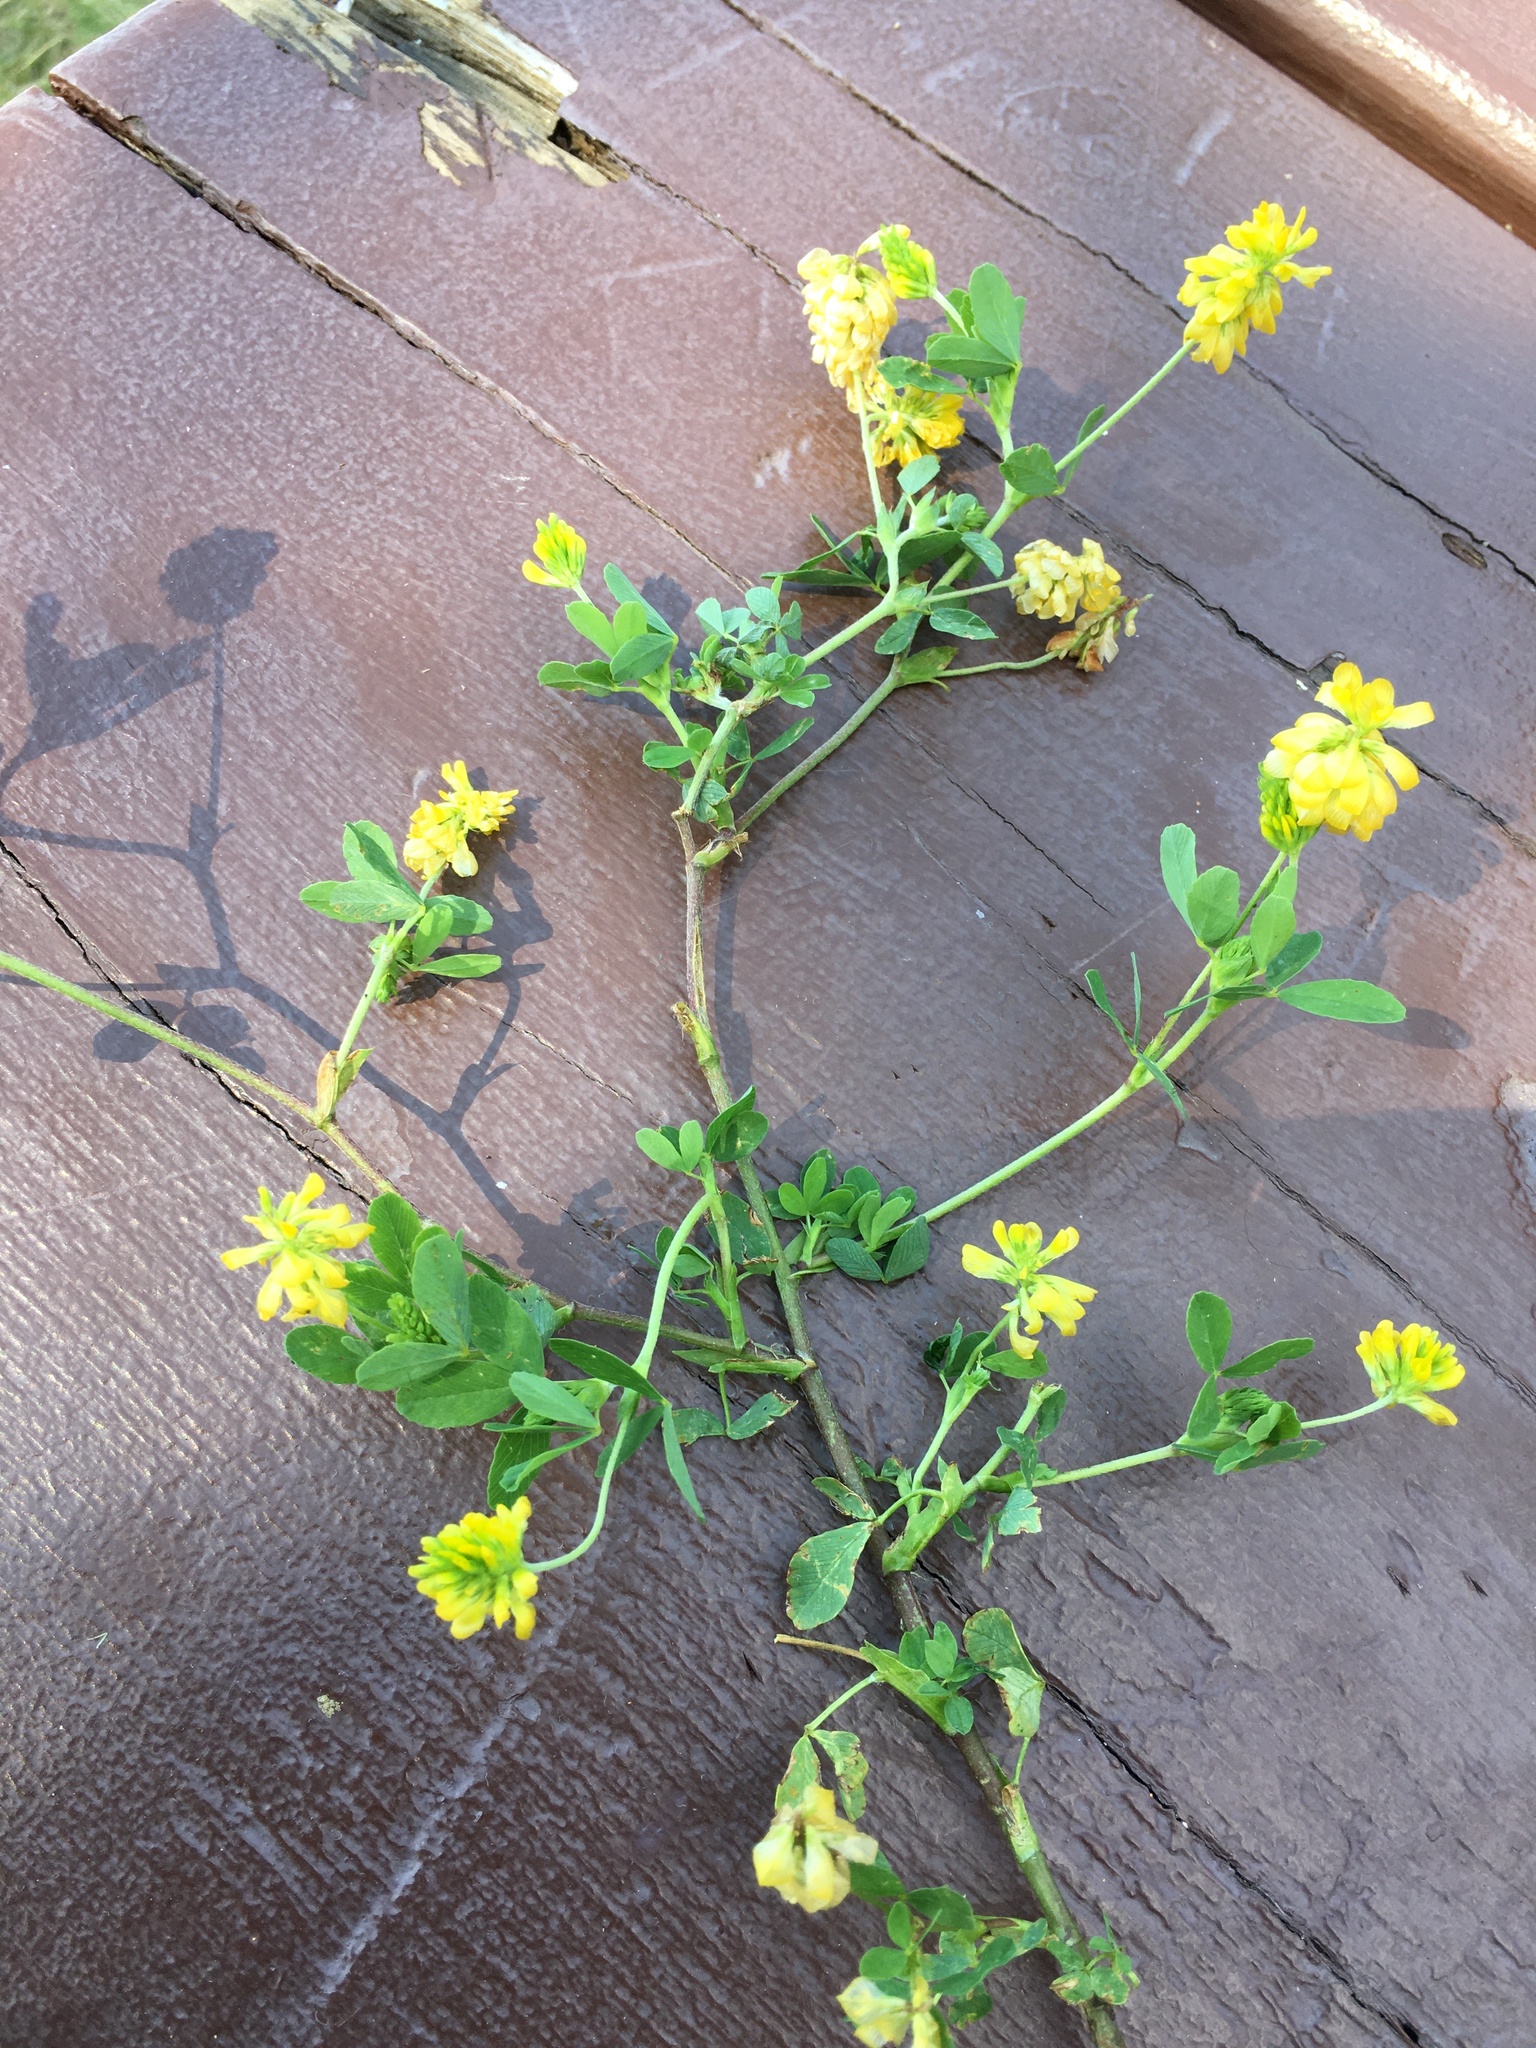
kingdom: Plantae
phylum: Tracheophyta
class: Magnoliopsida
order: Fabales
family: Fabaceae
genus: Trifolium
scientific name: Trifolium aureum
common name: Golden clover
